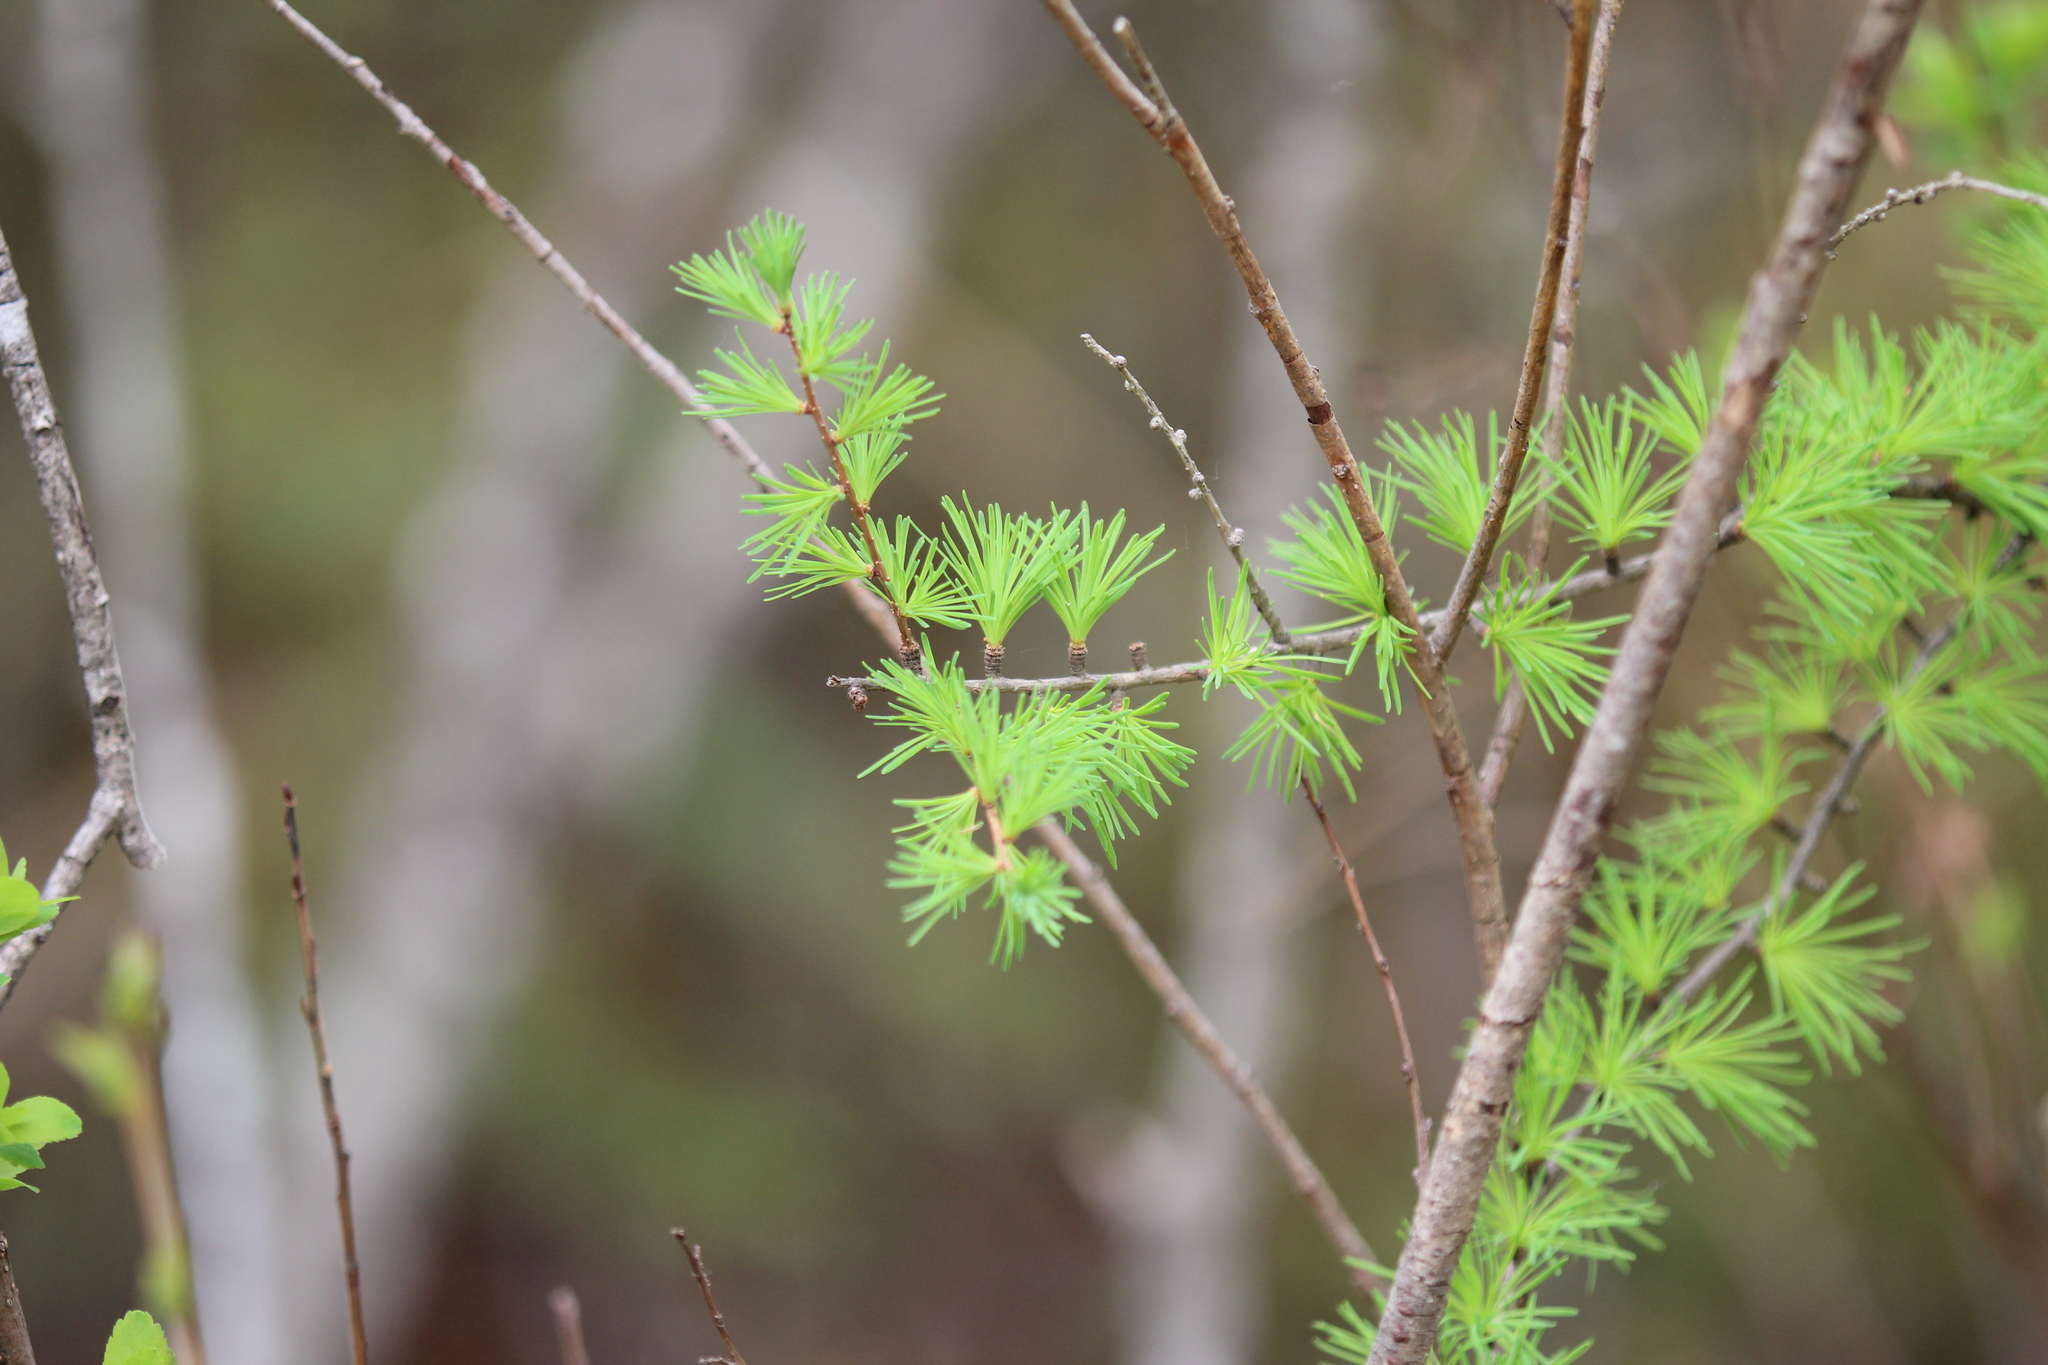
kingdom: Plantae
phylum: Tracheophyta
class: Pinopsida
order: Pinales
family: Pinaceae
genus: Larix
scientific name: Larix laricina
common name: American larch
